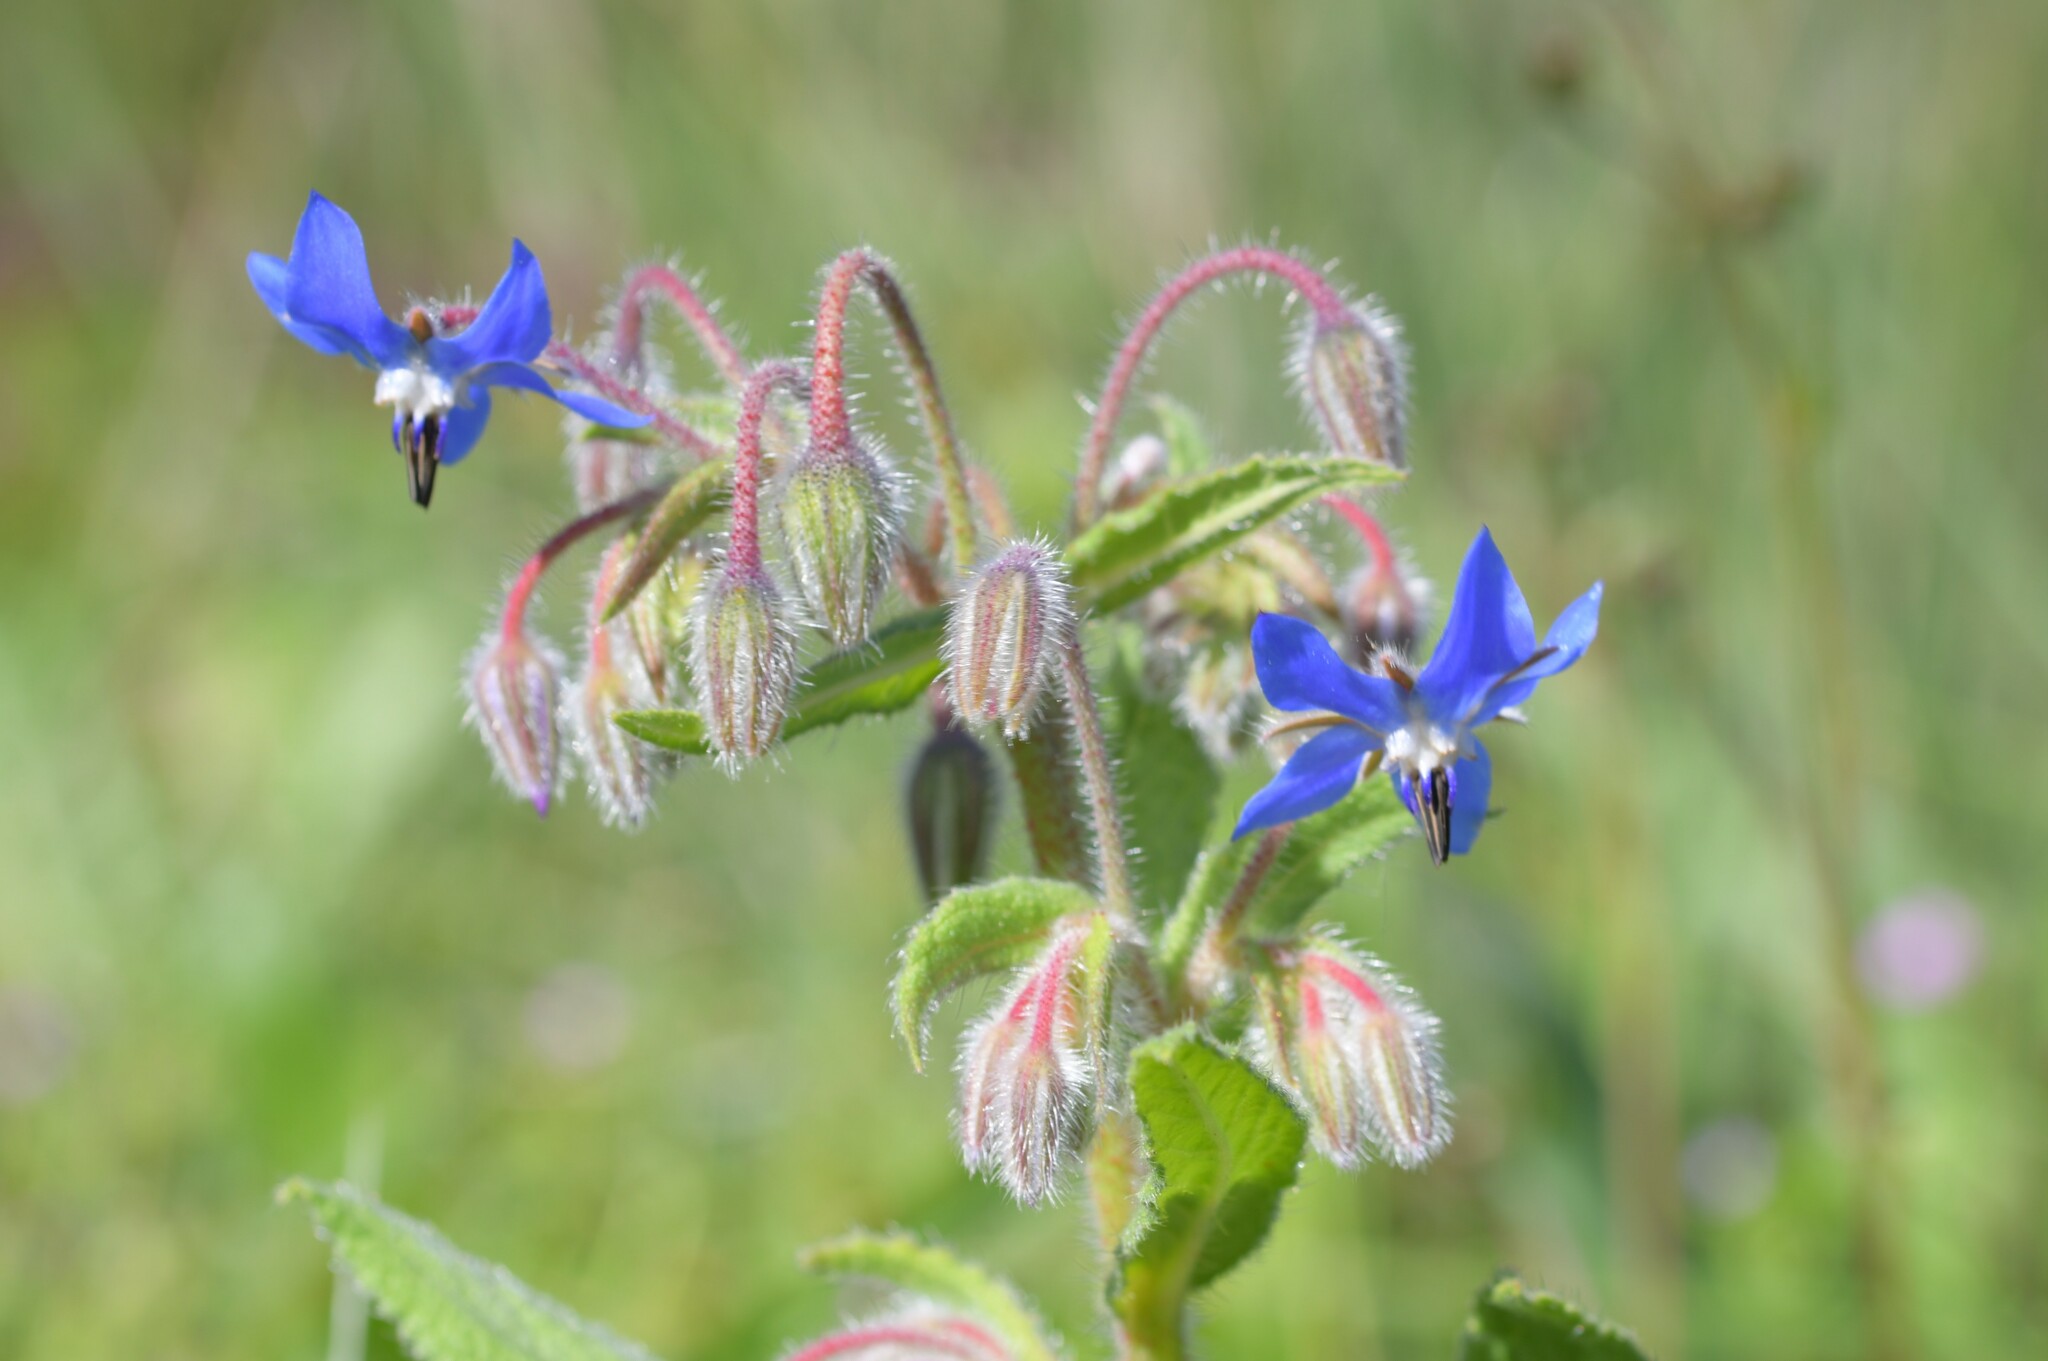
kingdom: Plantae
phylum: Tracheophyta
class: Magnoliopsida
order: Boraginales
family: Boraginaceae
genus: Borago
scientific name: Borago officinalis
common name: Borage
